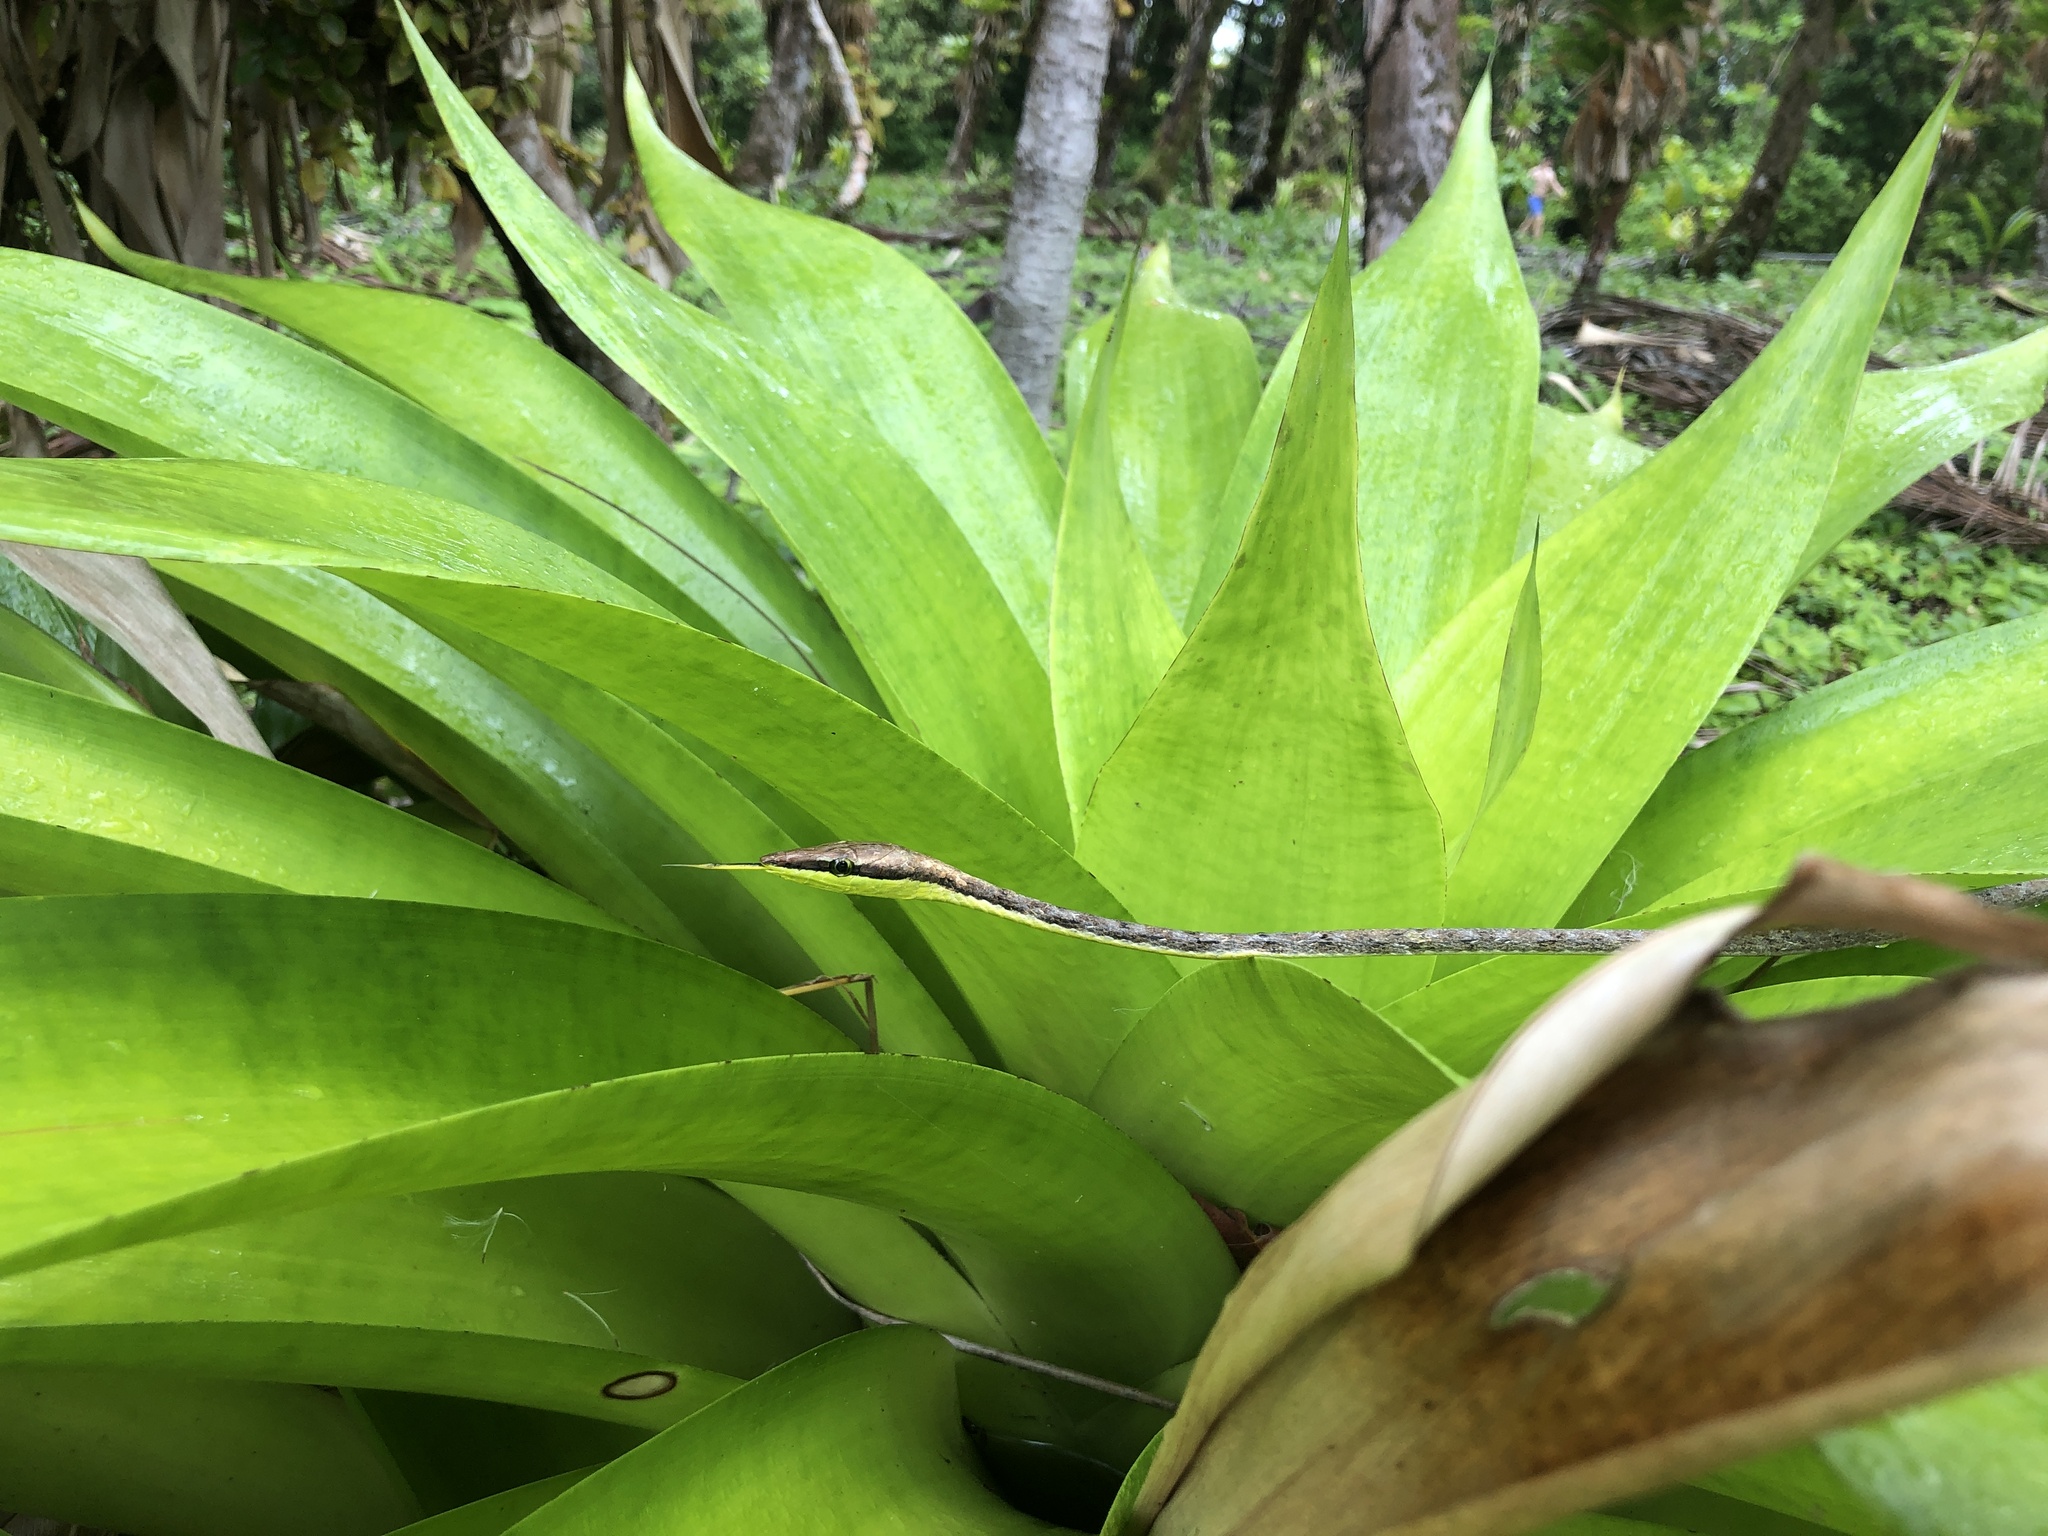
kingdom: Animalia
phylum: Chordata
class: Squamata
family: Colubridae
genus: Oxybelis
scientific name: Oxybelis vittatus
